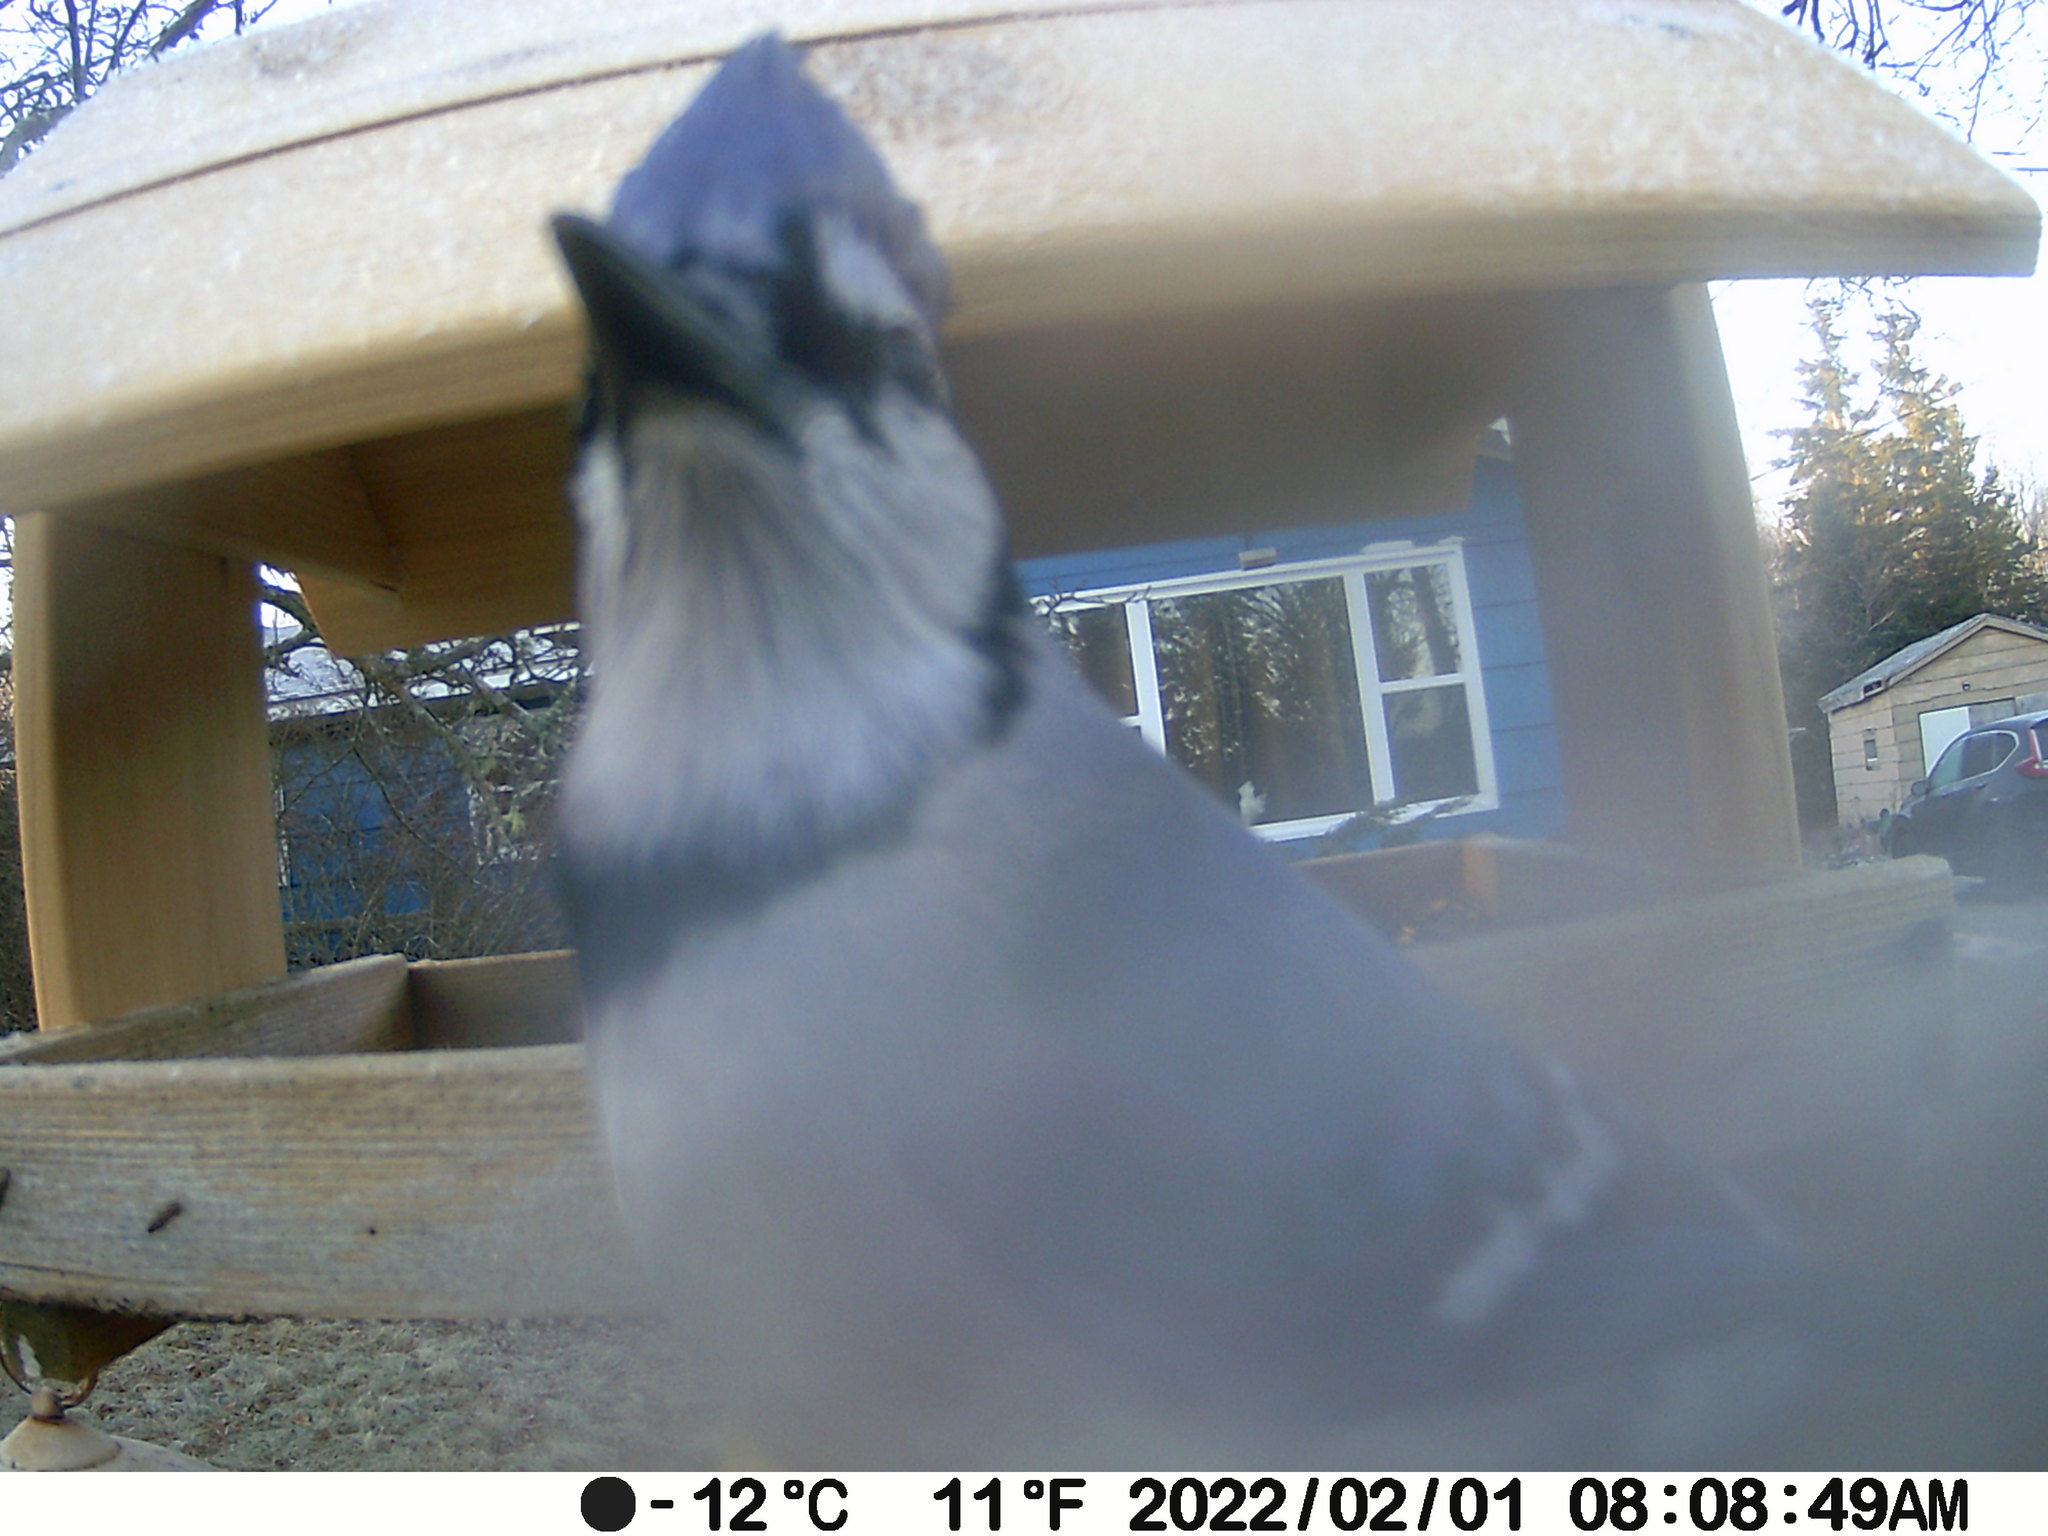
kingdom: Animalia
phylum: Chordata
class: Aves
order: Passeriformes
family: Corvidae
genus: Cyanocitta
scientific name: Cyanocitta cristata
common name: Blue jay
